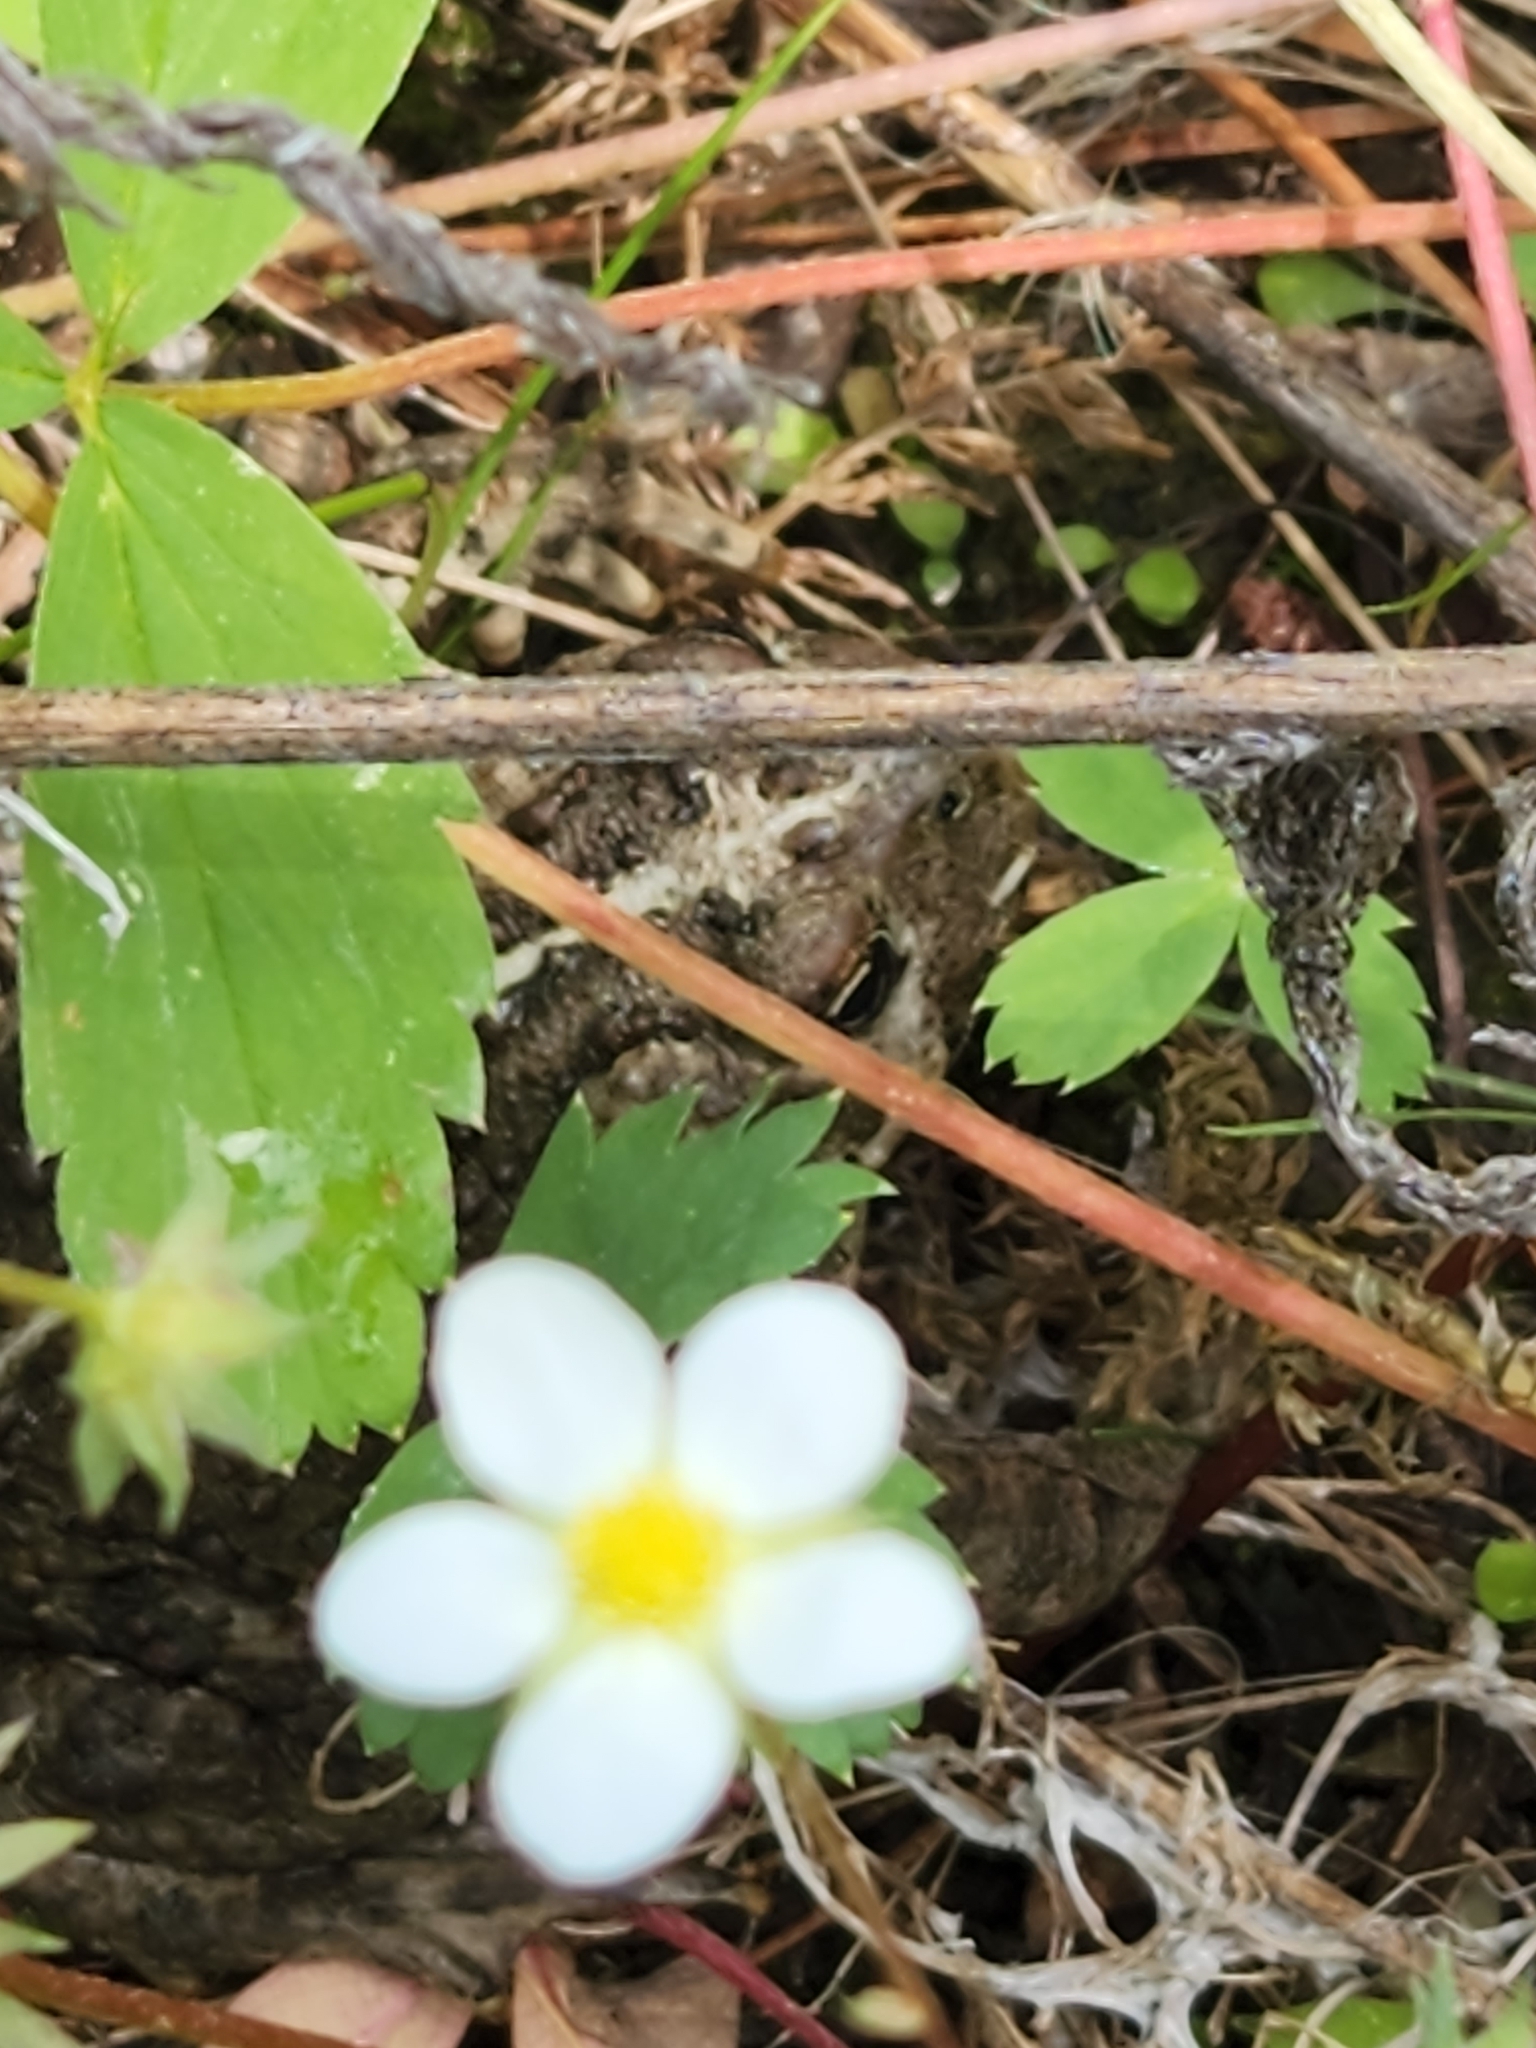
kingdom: Animalia
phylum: Chordata
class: Amphibia
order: Anura
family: Bufonidae
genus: Anaxyrus
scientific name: Anaxyrus boreas
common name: Western toad
